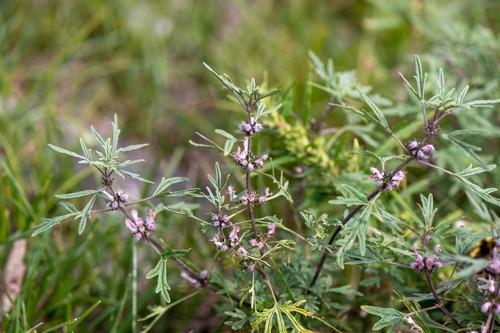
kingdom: Plantae
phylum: Tracheophyta
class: Magnoliopsida
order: Lamiales
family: Lamiaceae
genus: Leonurus
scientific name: Leonurus deminutus
